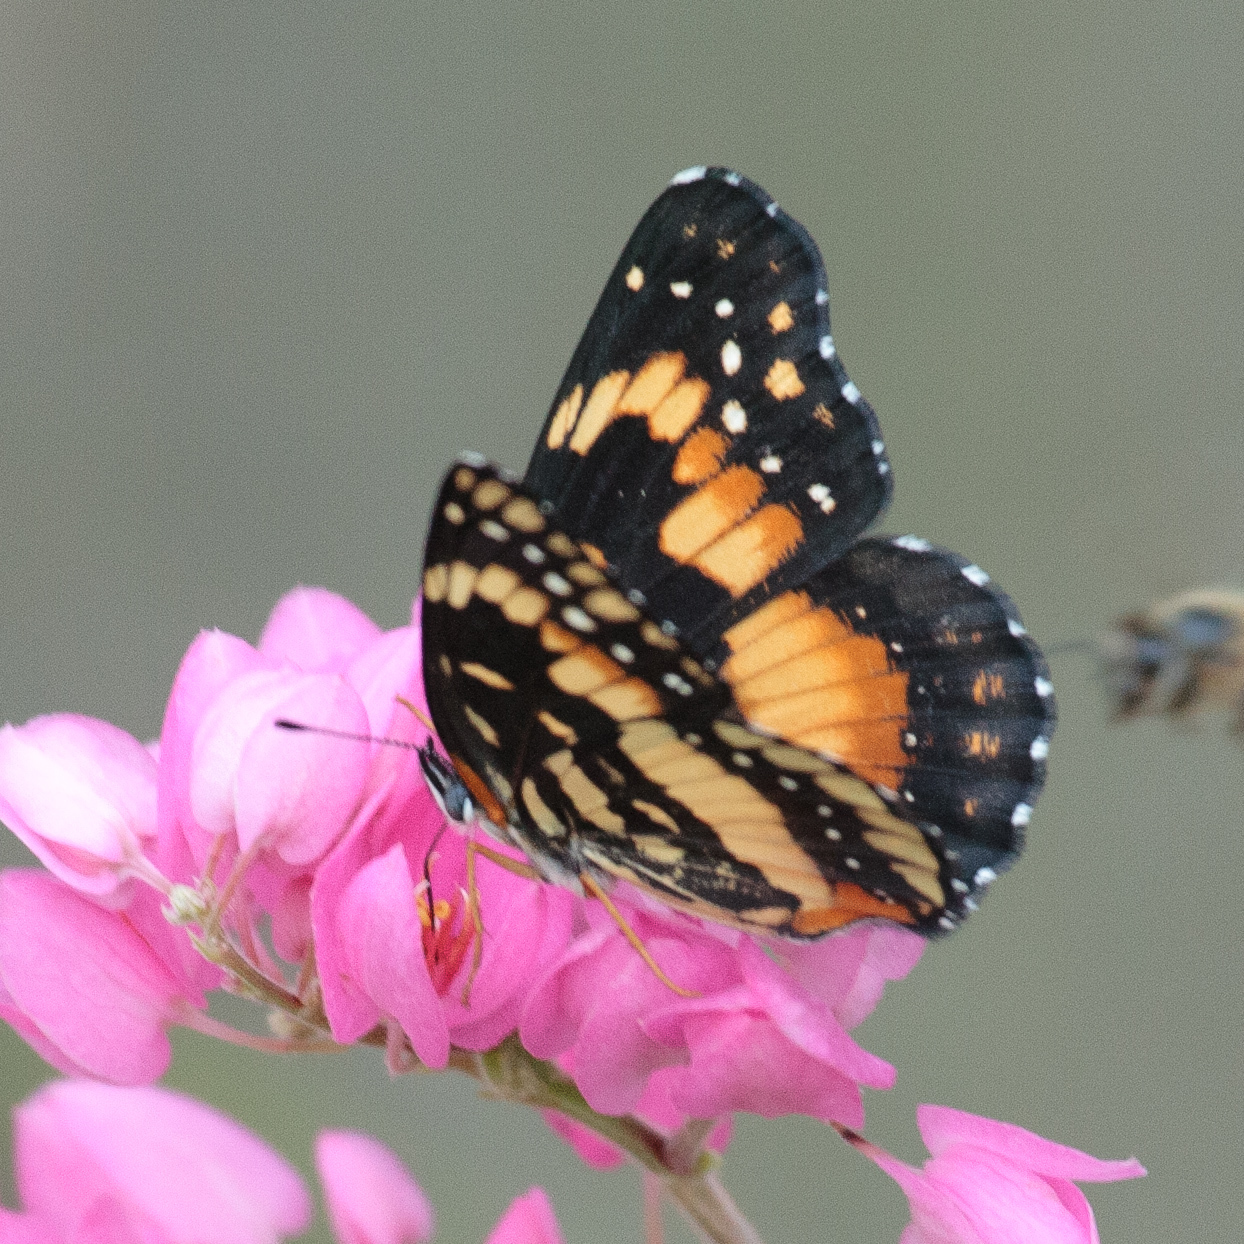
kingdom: Animalia
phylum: Arthropoda
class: Insecta
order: Lepidoptera
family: Nymphalidae
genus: Chlosyne
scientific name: Chlosyne lacinia
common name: Bordered patch
